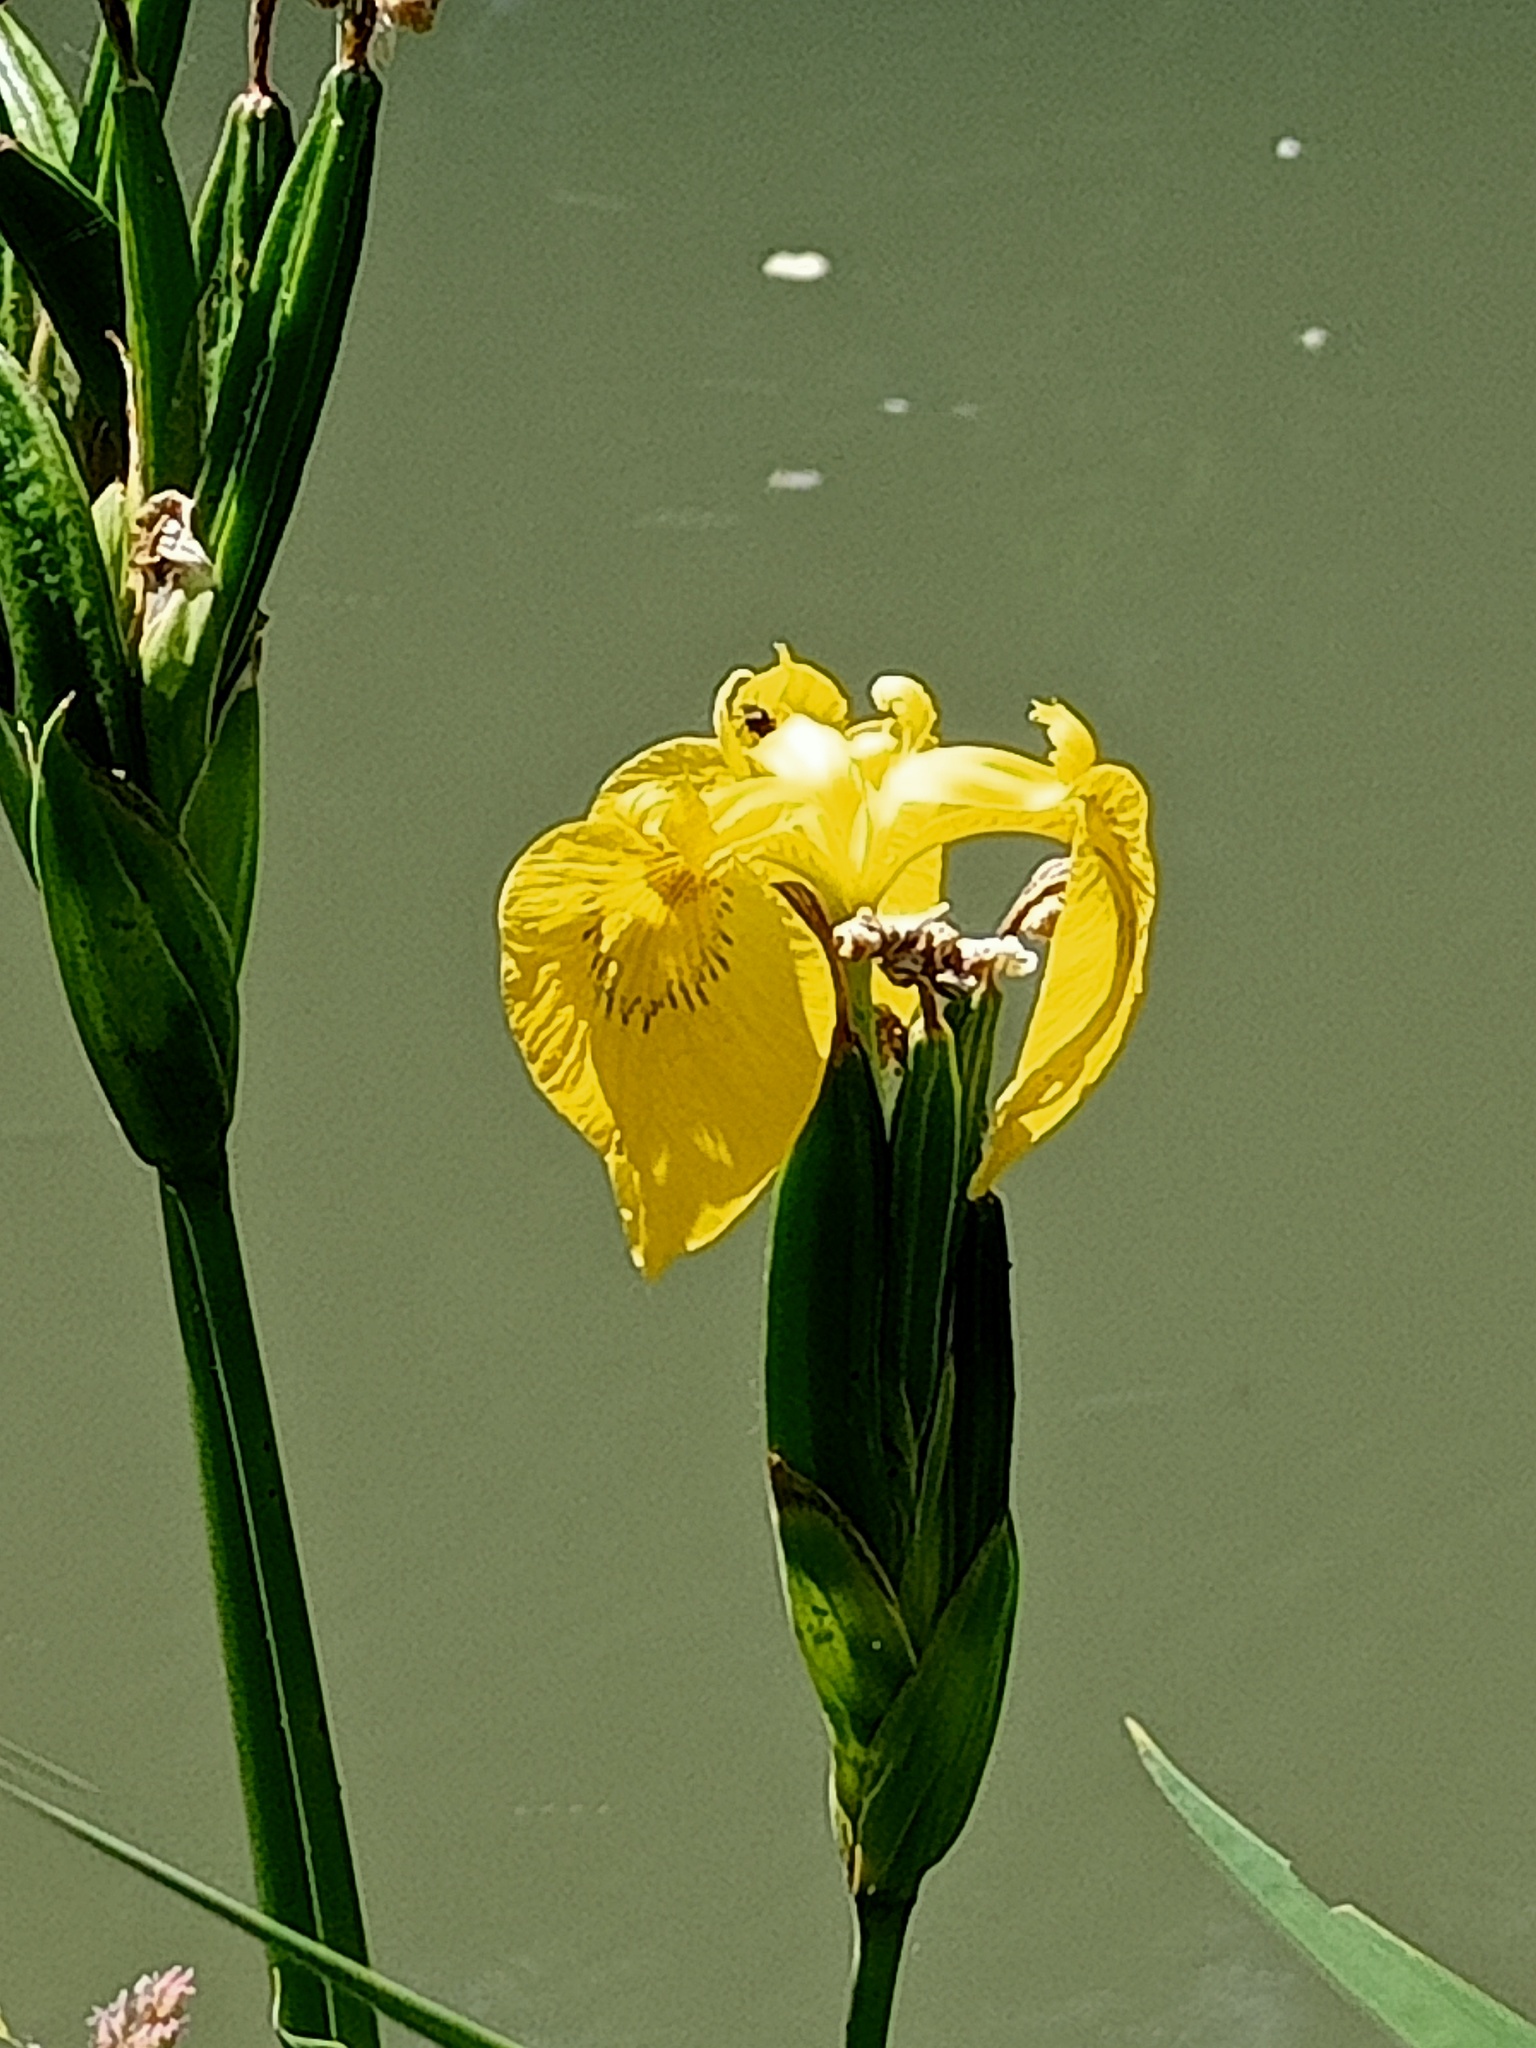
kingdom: Plantae
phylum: Tracheophyta
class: Liliopsida
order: Asparagales
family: Iridaceae
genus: Iris
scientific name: Iris pseudacorus
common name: Yellow flag
